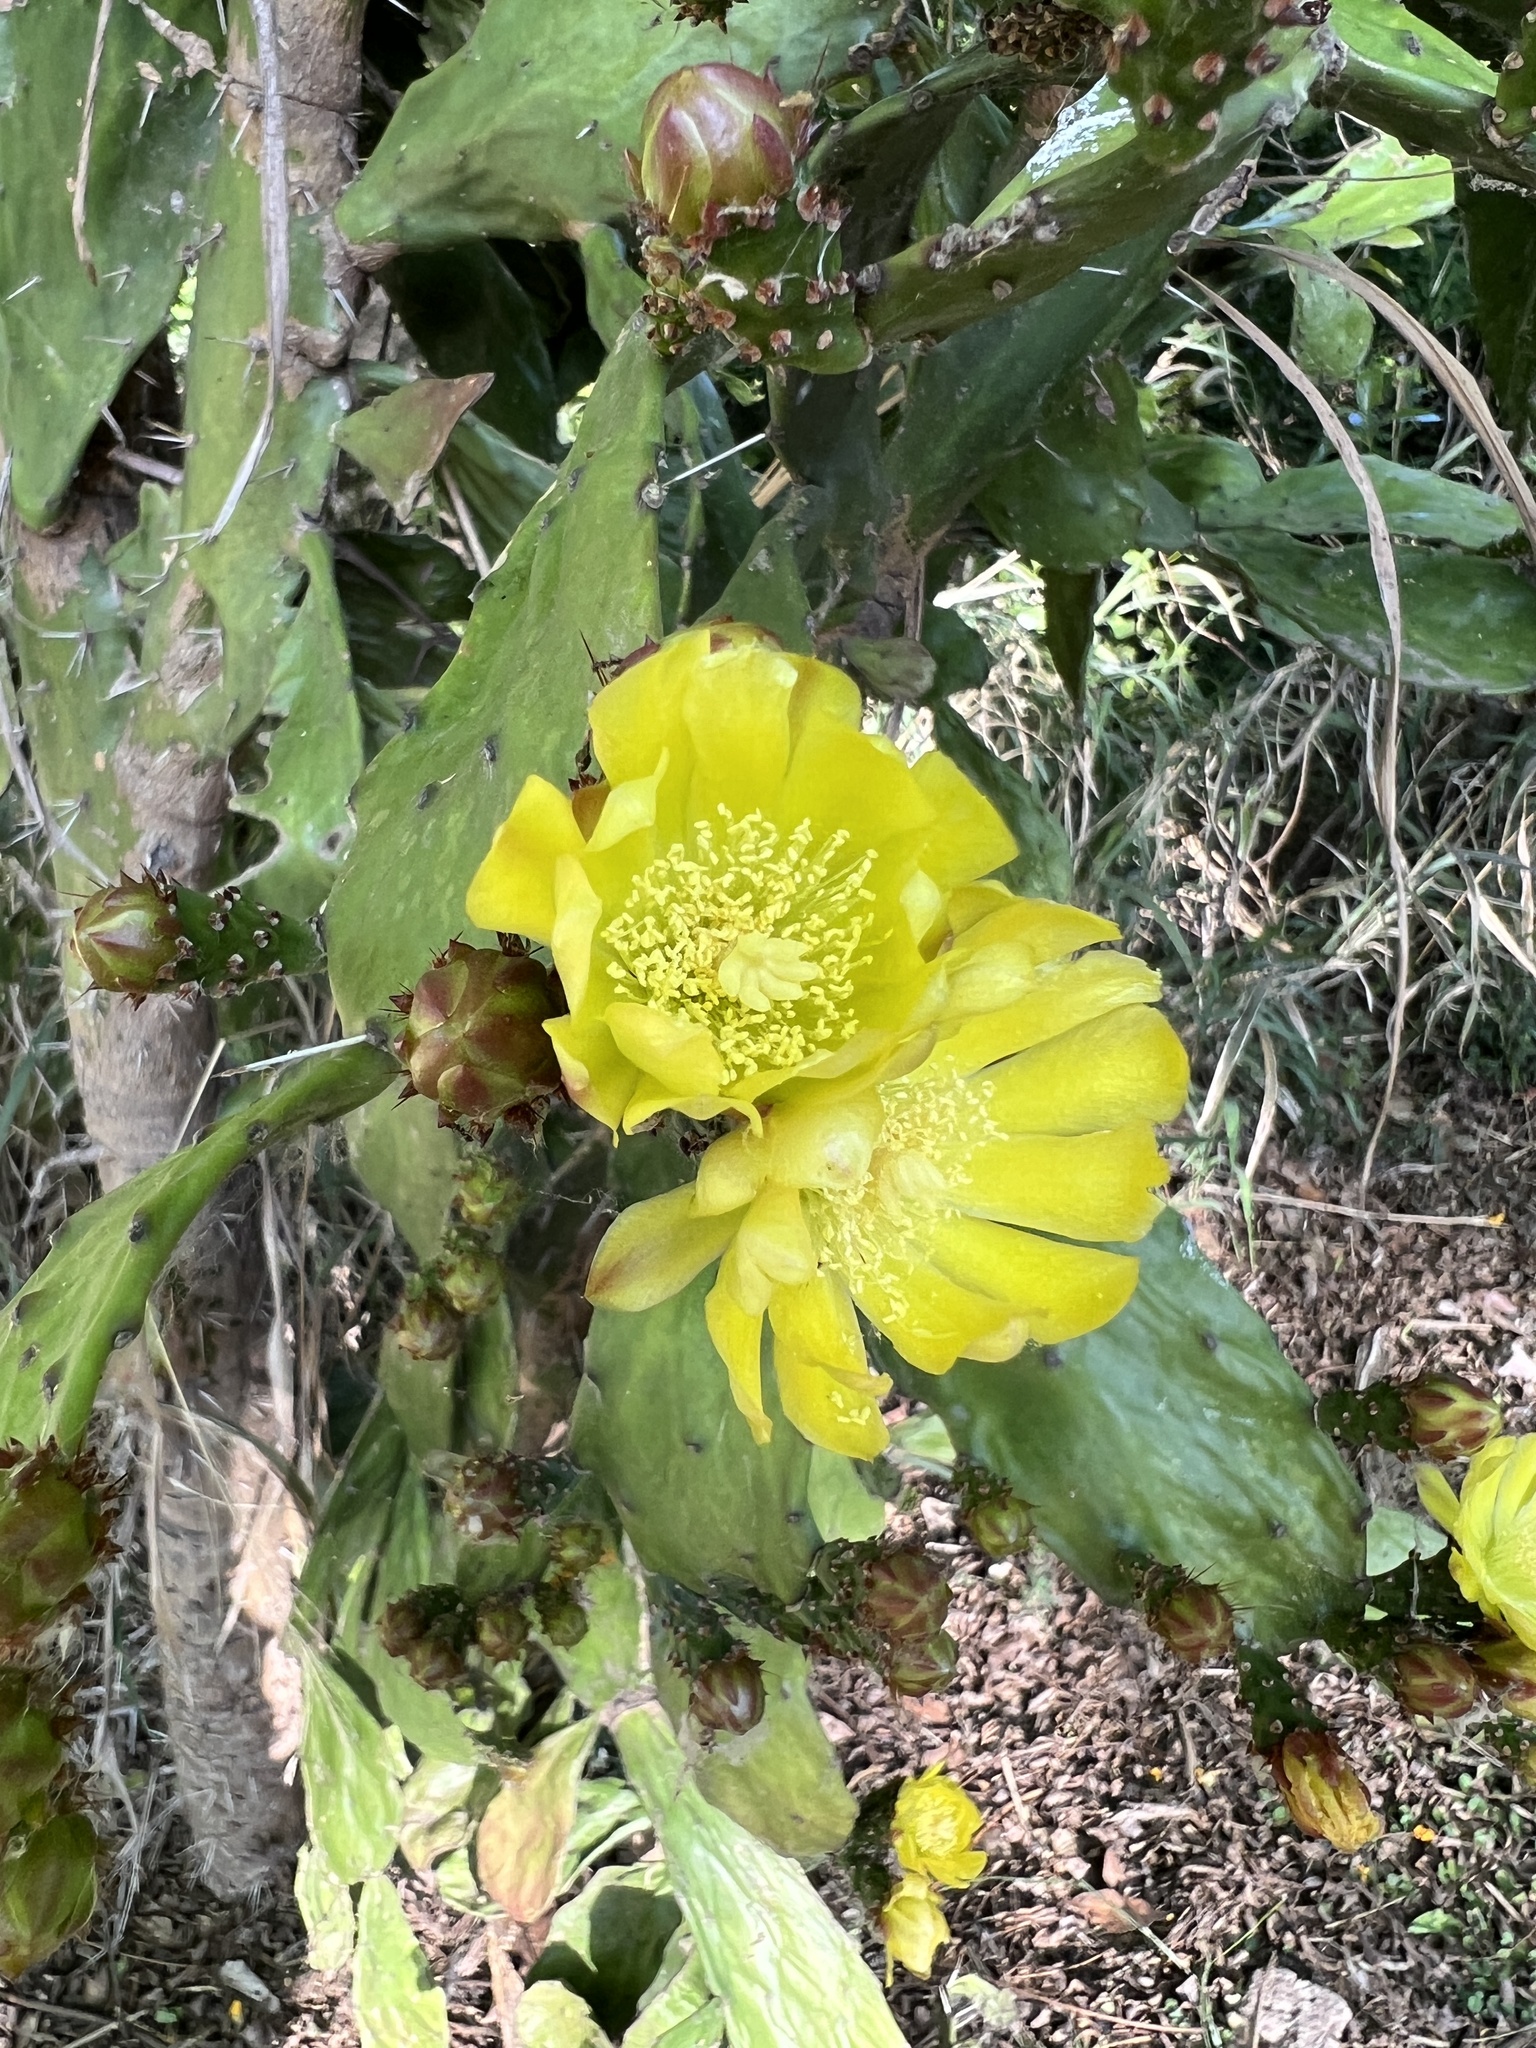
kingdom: Plantae
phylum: Tracheophyta
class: Magnoliopsida
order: Caryophyllales
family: Cactaceae
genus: Opuntia
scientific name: Opuntia monacantha
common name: Common pricklypear
